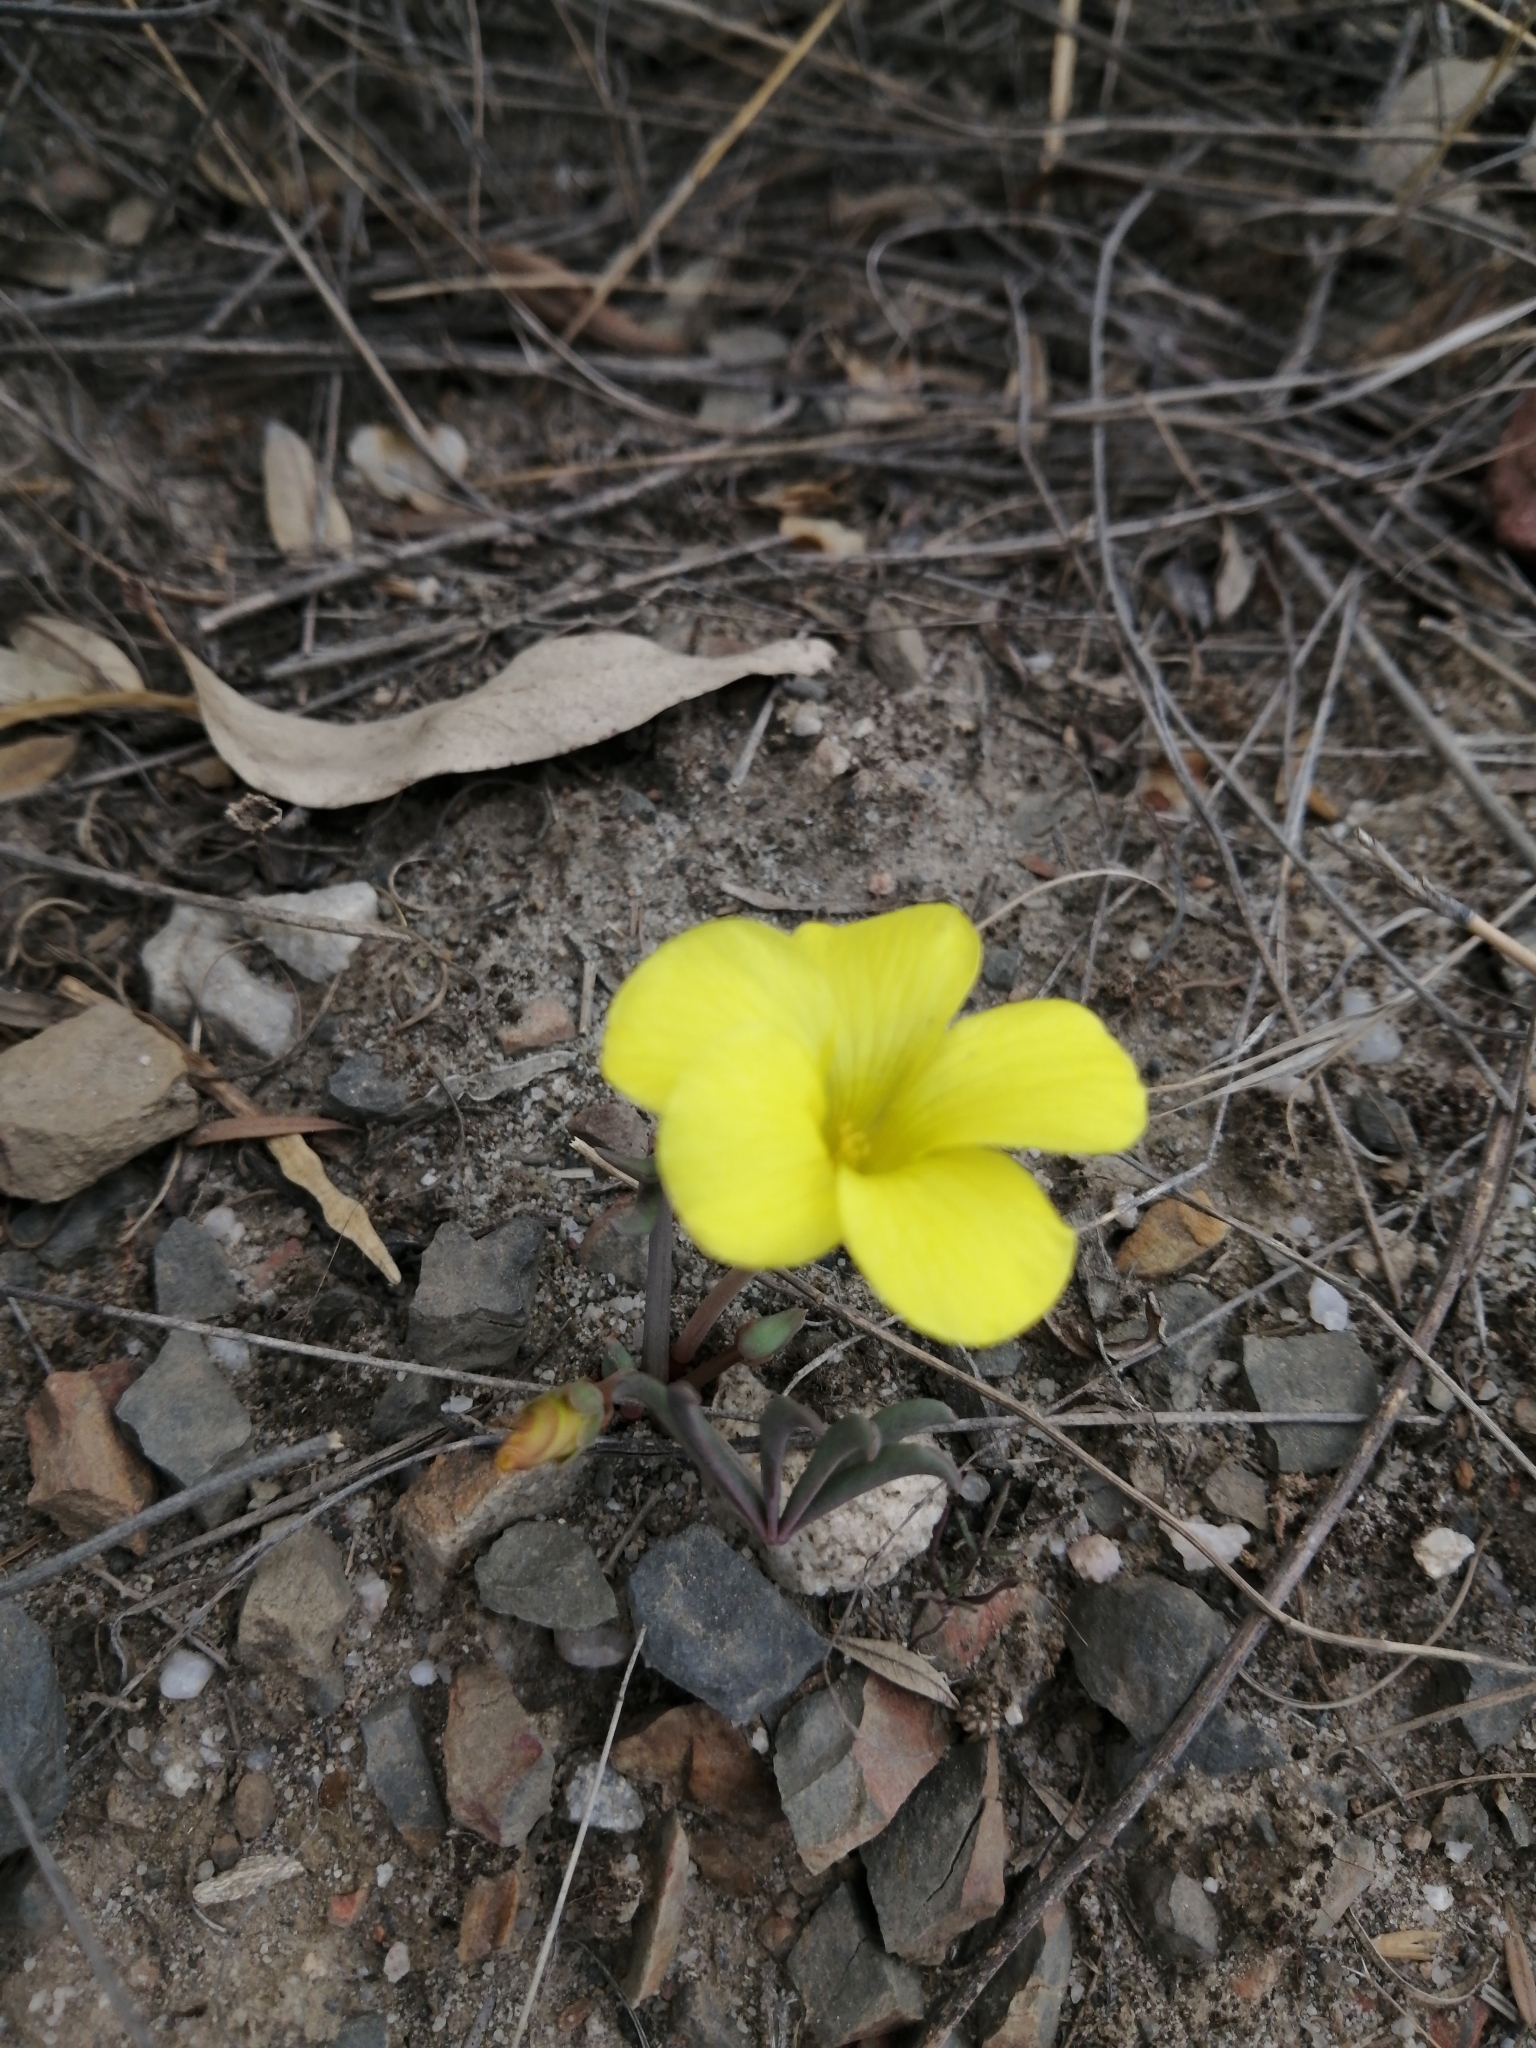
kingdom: Plantae
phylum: Tracheophyta
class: Magnoliopsida
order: Oxalidales
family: Oxalidaceae
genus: Oxalis
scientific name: Oxalis flava
